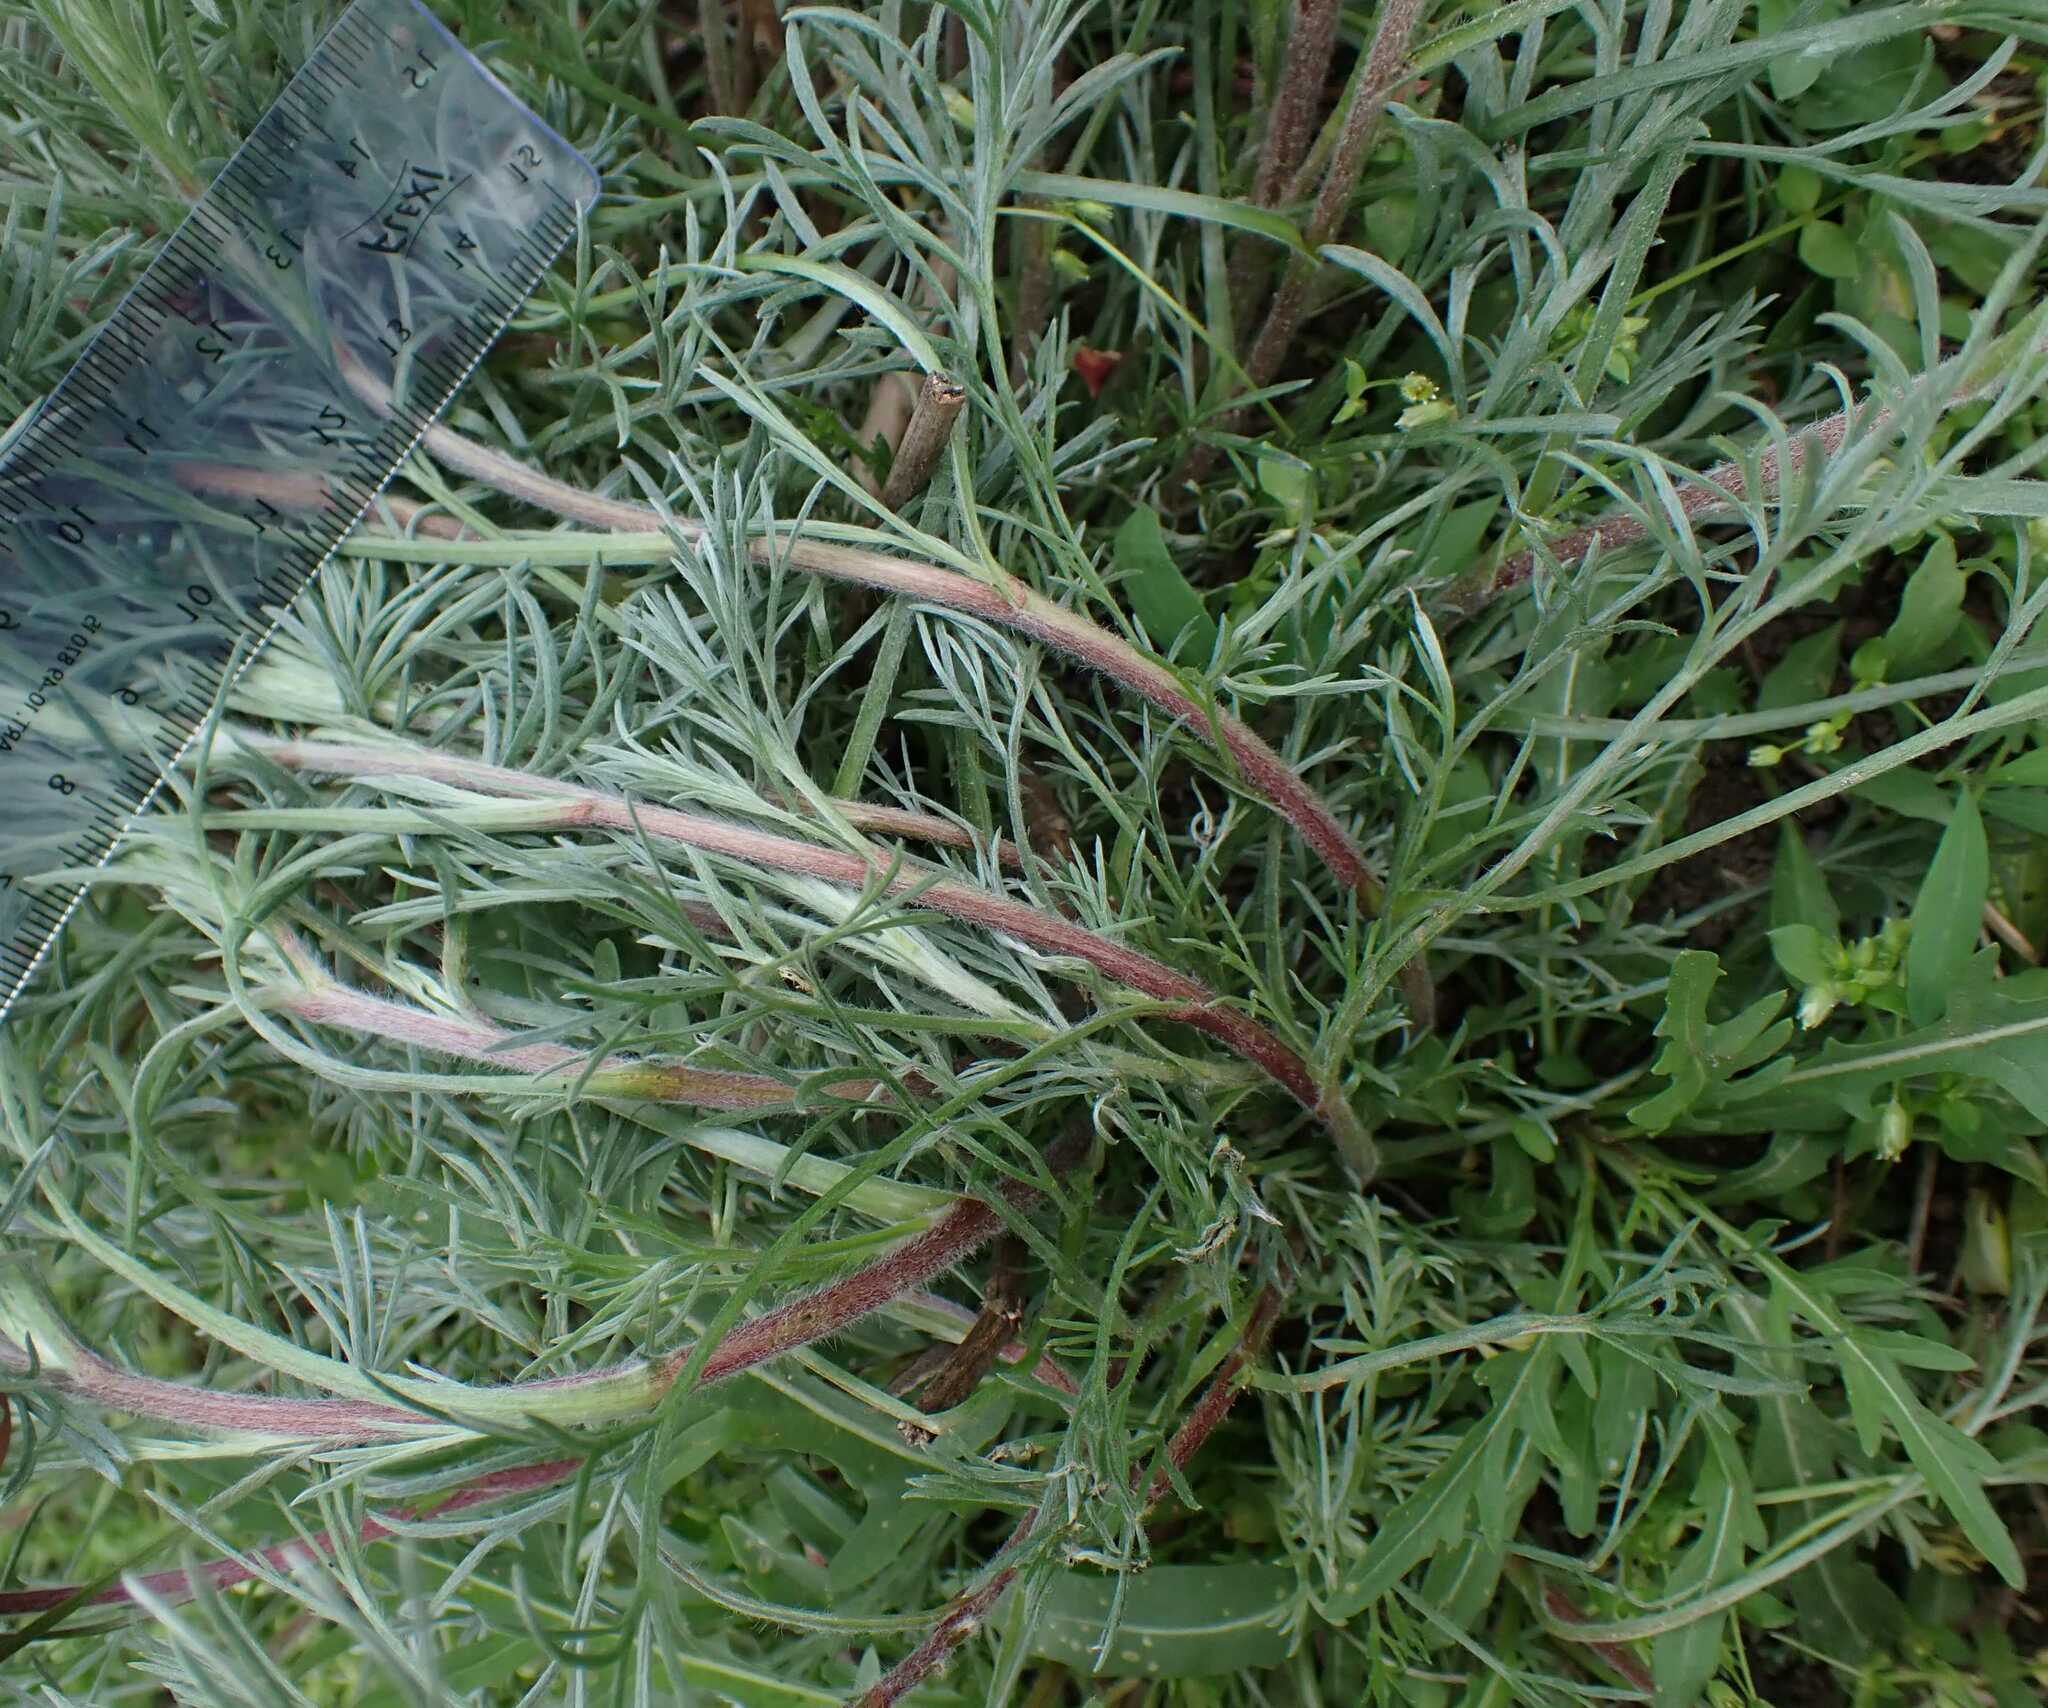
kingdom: Plantae
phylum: Tracheophyta
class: Magnoliopsida
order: Asterales
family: Asteraceae
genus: Artemisia
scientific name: Artemisia campestris
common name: Field wormwood
